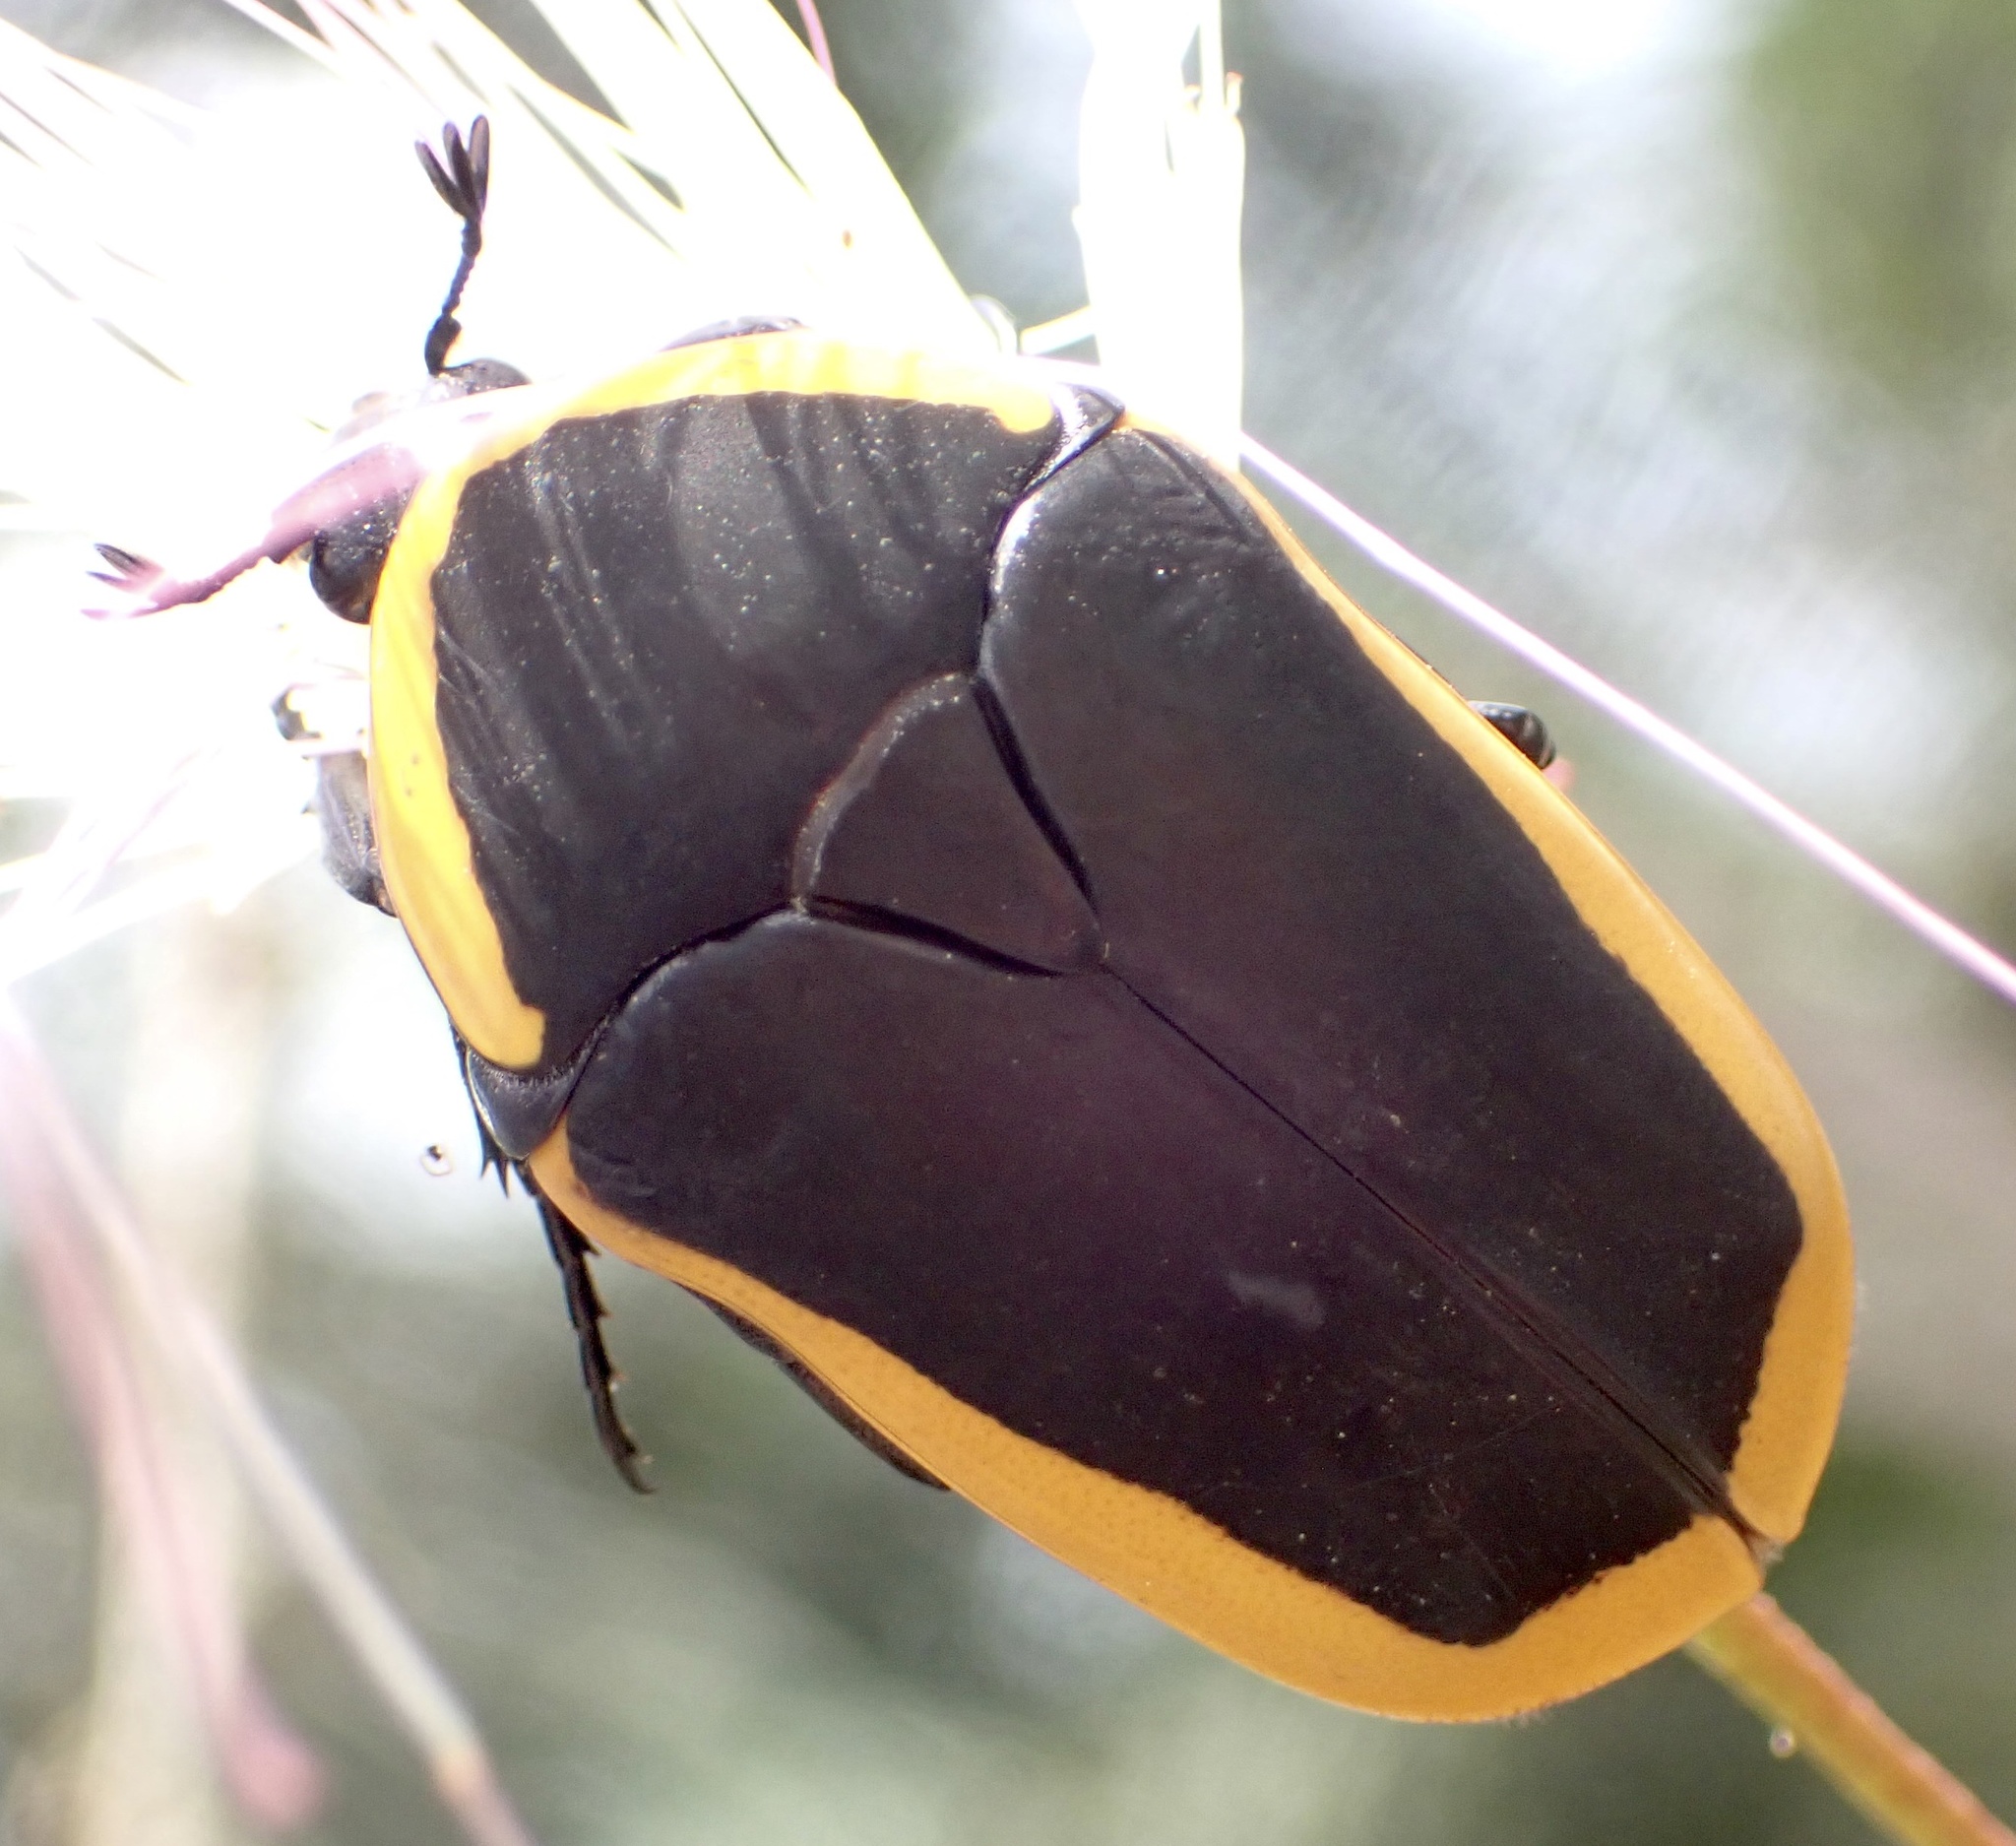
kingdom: Animalia
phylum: Arthropoda
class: Insecta
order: Coleoptera
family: Scarabaeidae
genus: Pachnoda
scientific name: Pachnoda marginata
